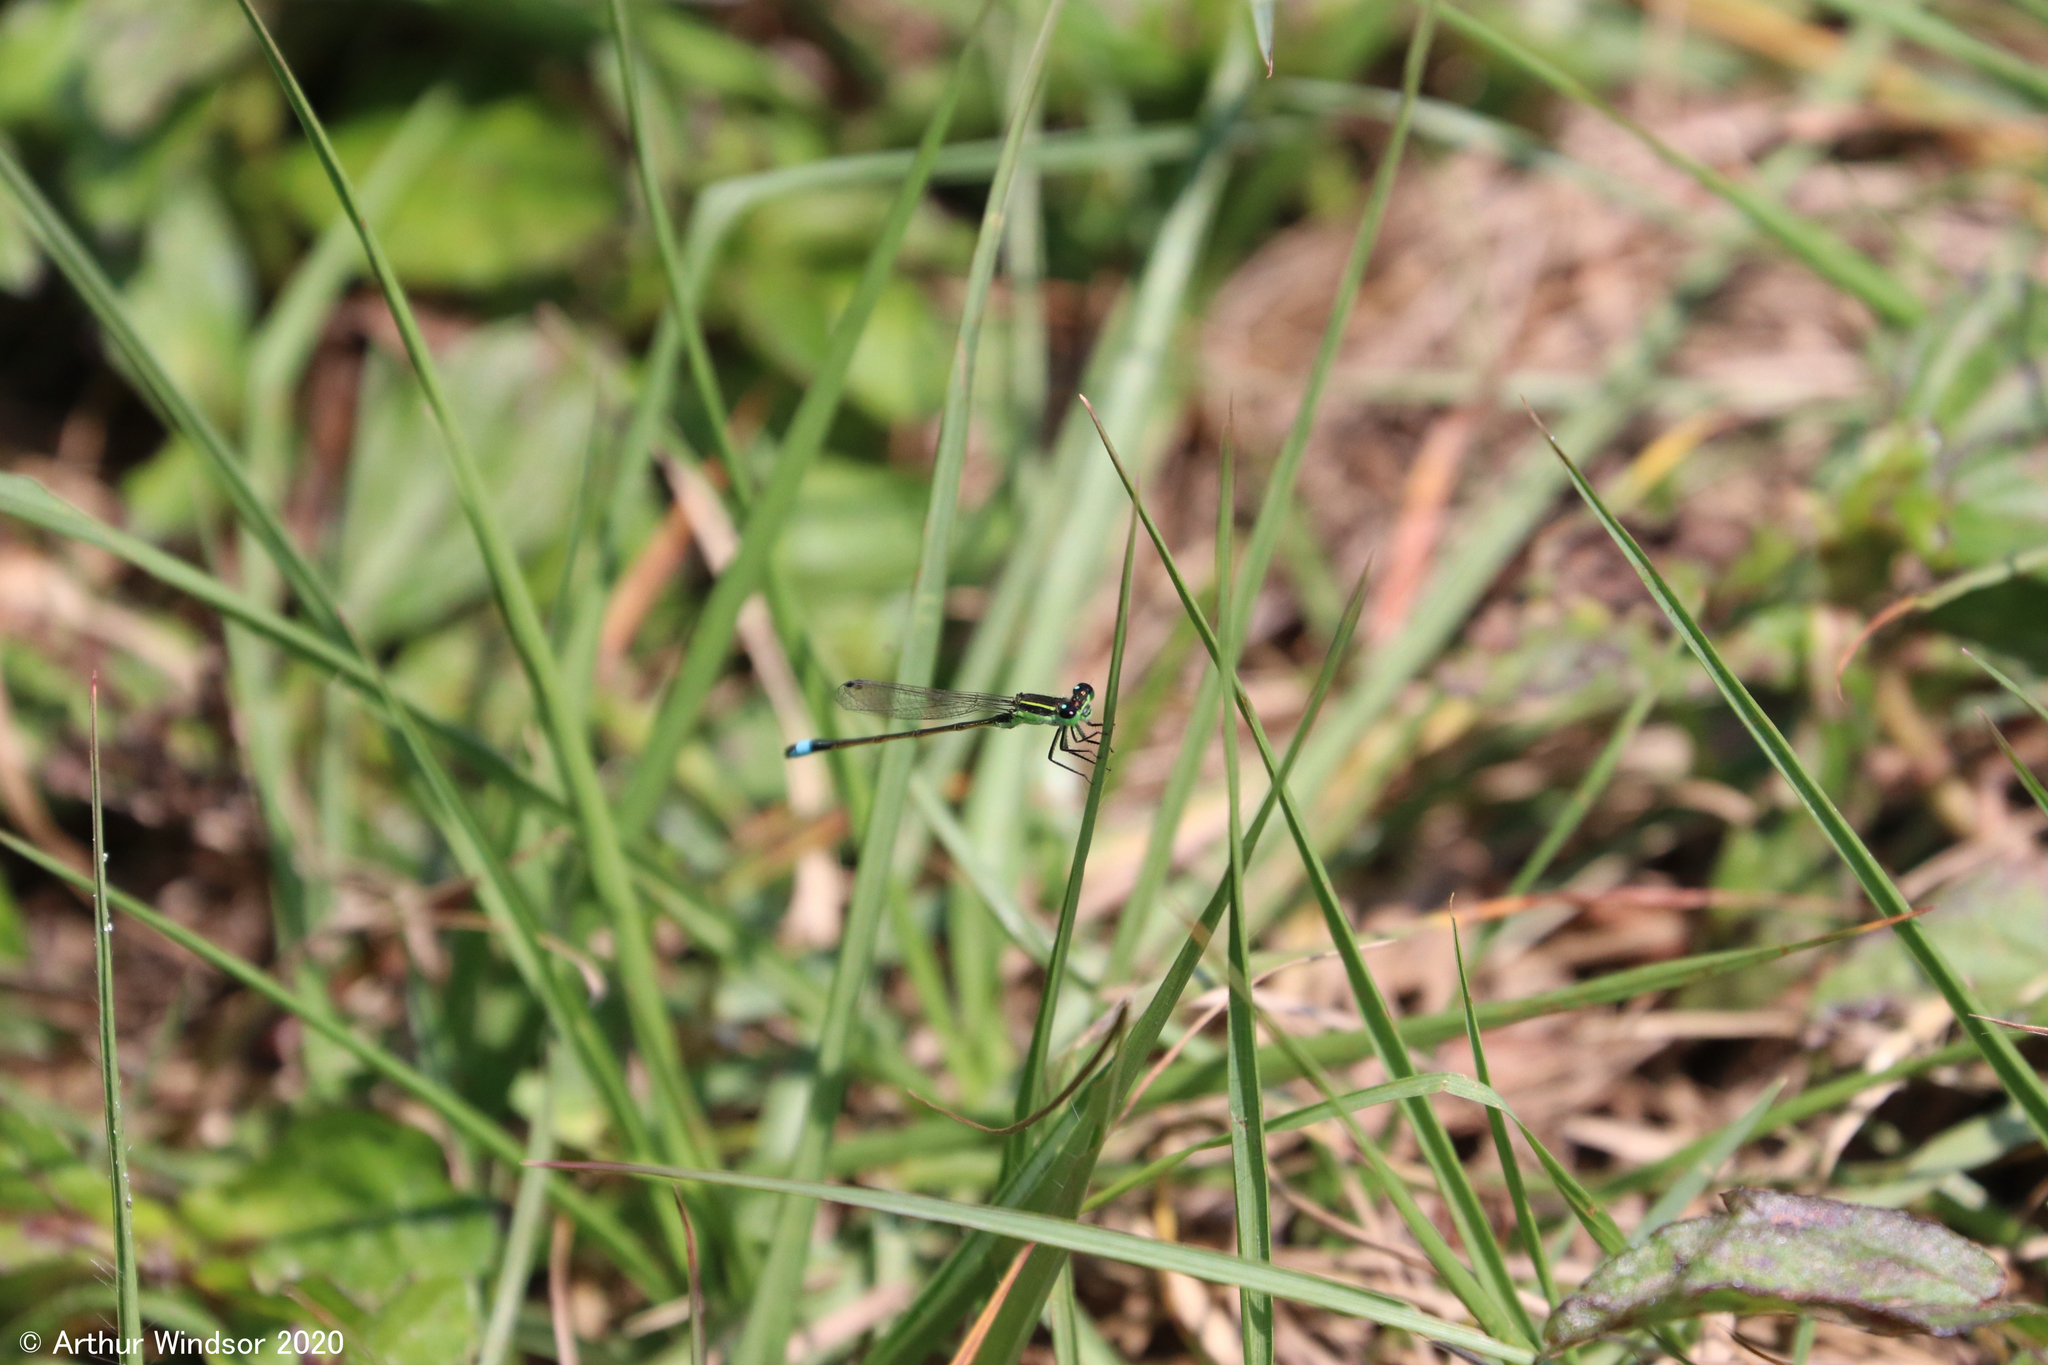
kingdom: Animalia
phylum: Arthropoda
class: Insecta
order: Odonata
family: Coenagrionidae
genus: Ischnura
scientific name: Ischnura ramburii
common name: Rambur's forktail
